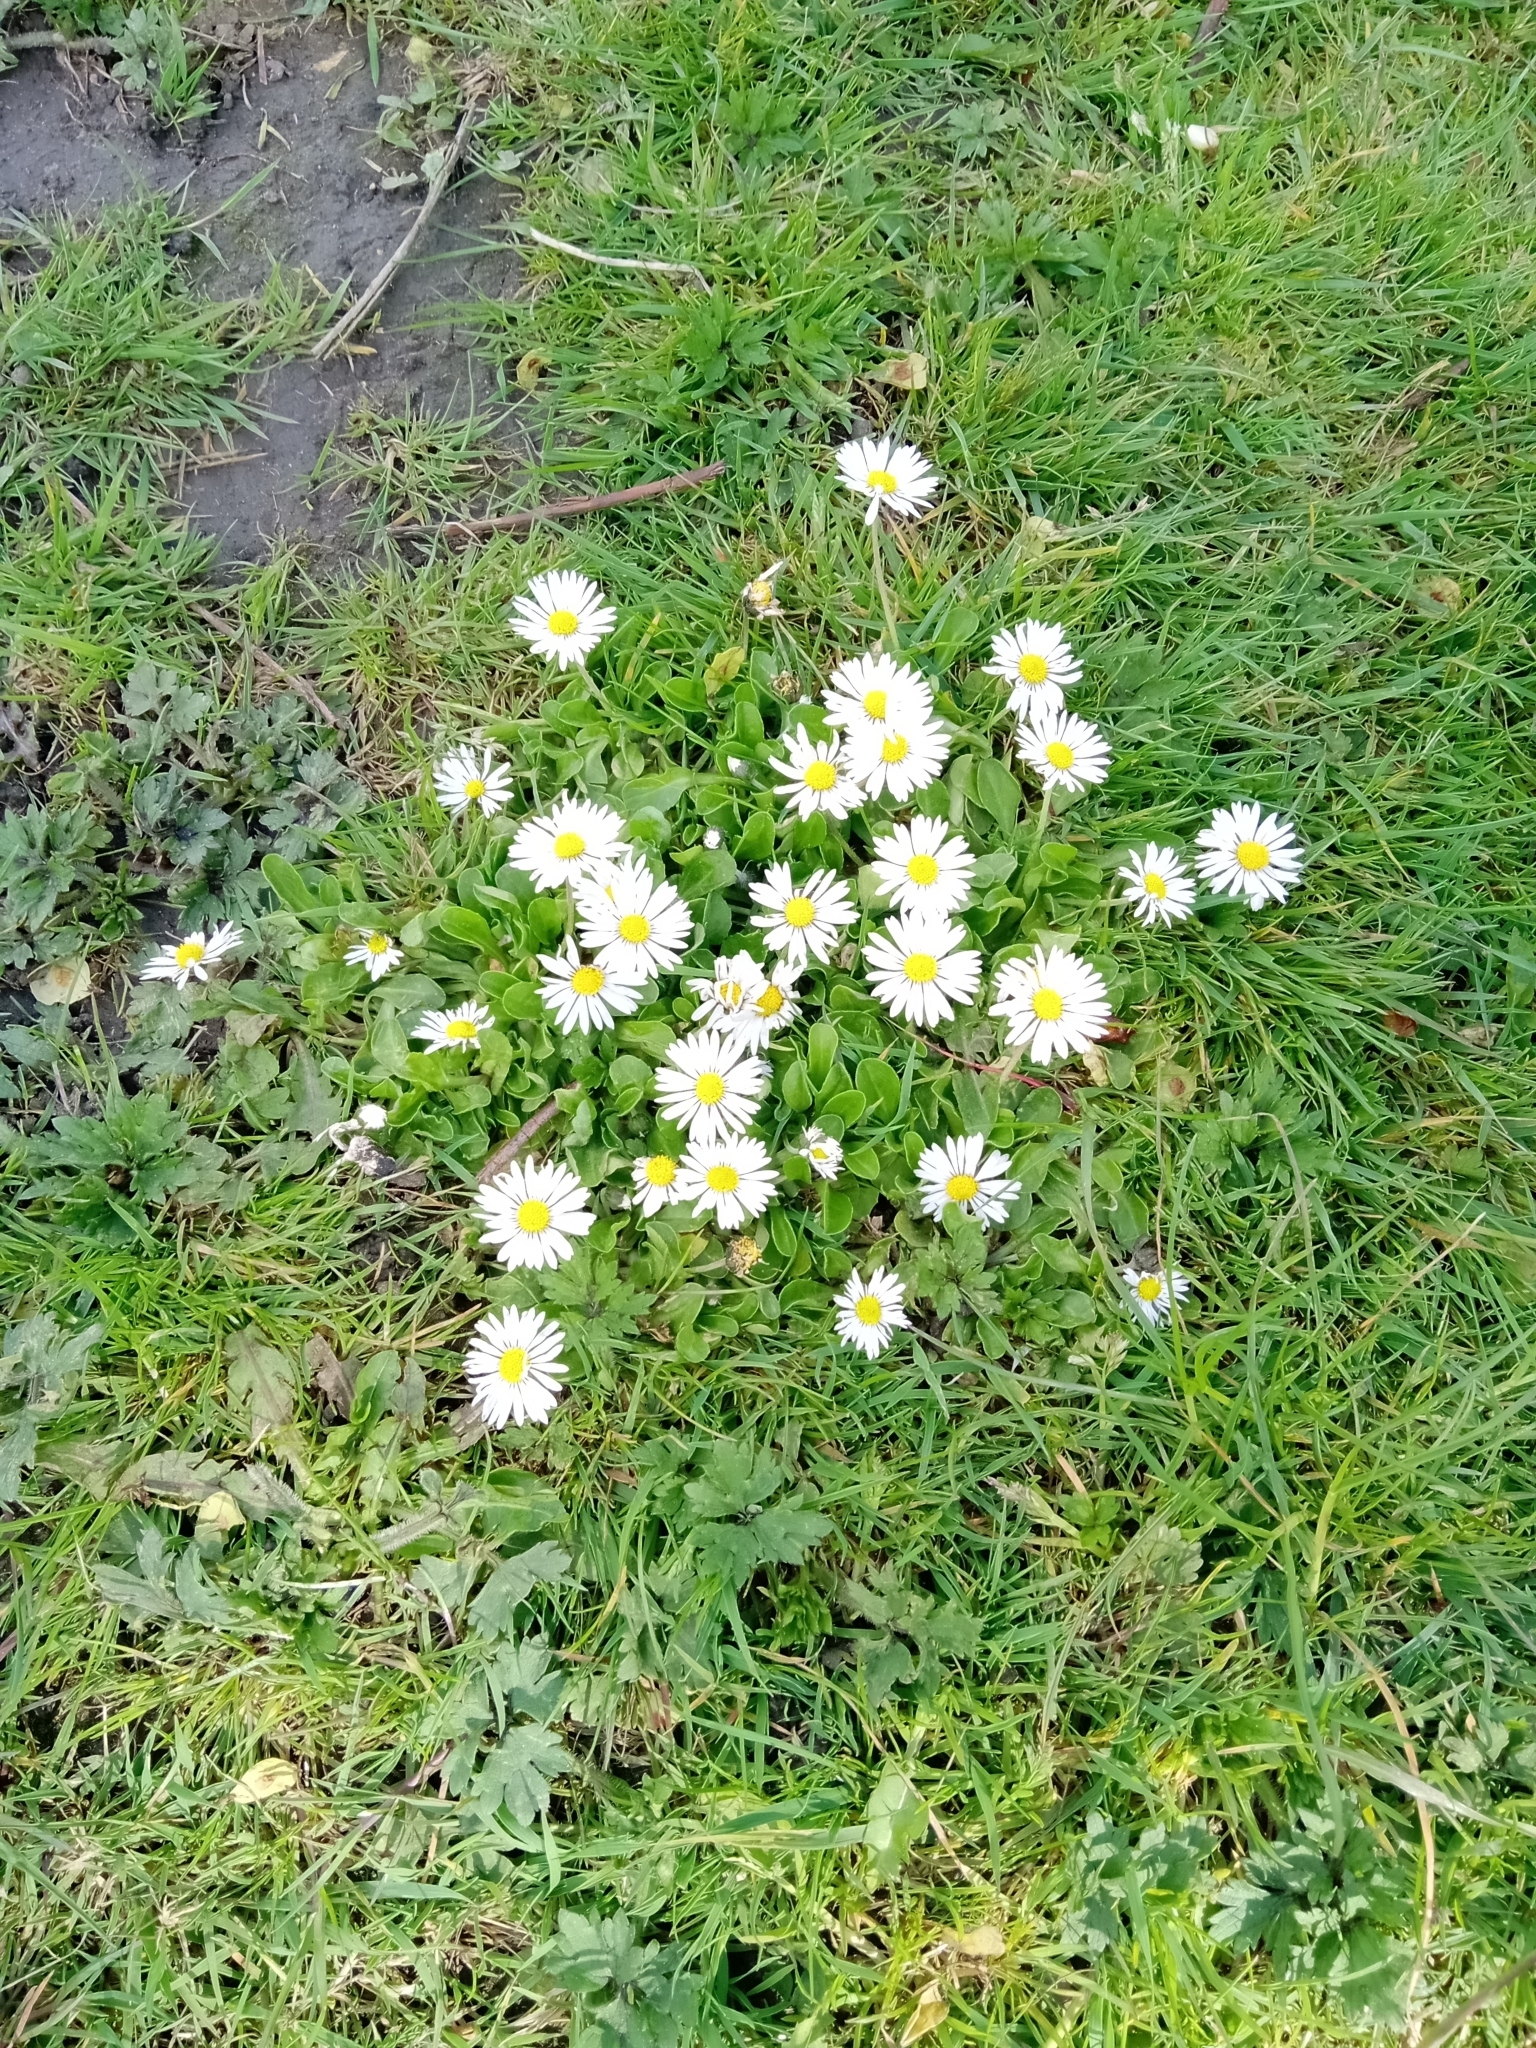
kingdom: Plantae
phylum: Tracheophyta
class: Magnoliopsida
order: Asterales
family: Asteraceae
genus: Bellis
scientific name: Bellis perennis
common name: Lawndaisy
